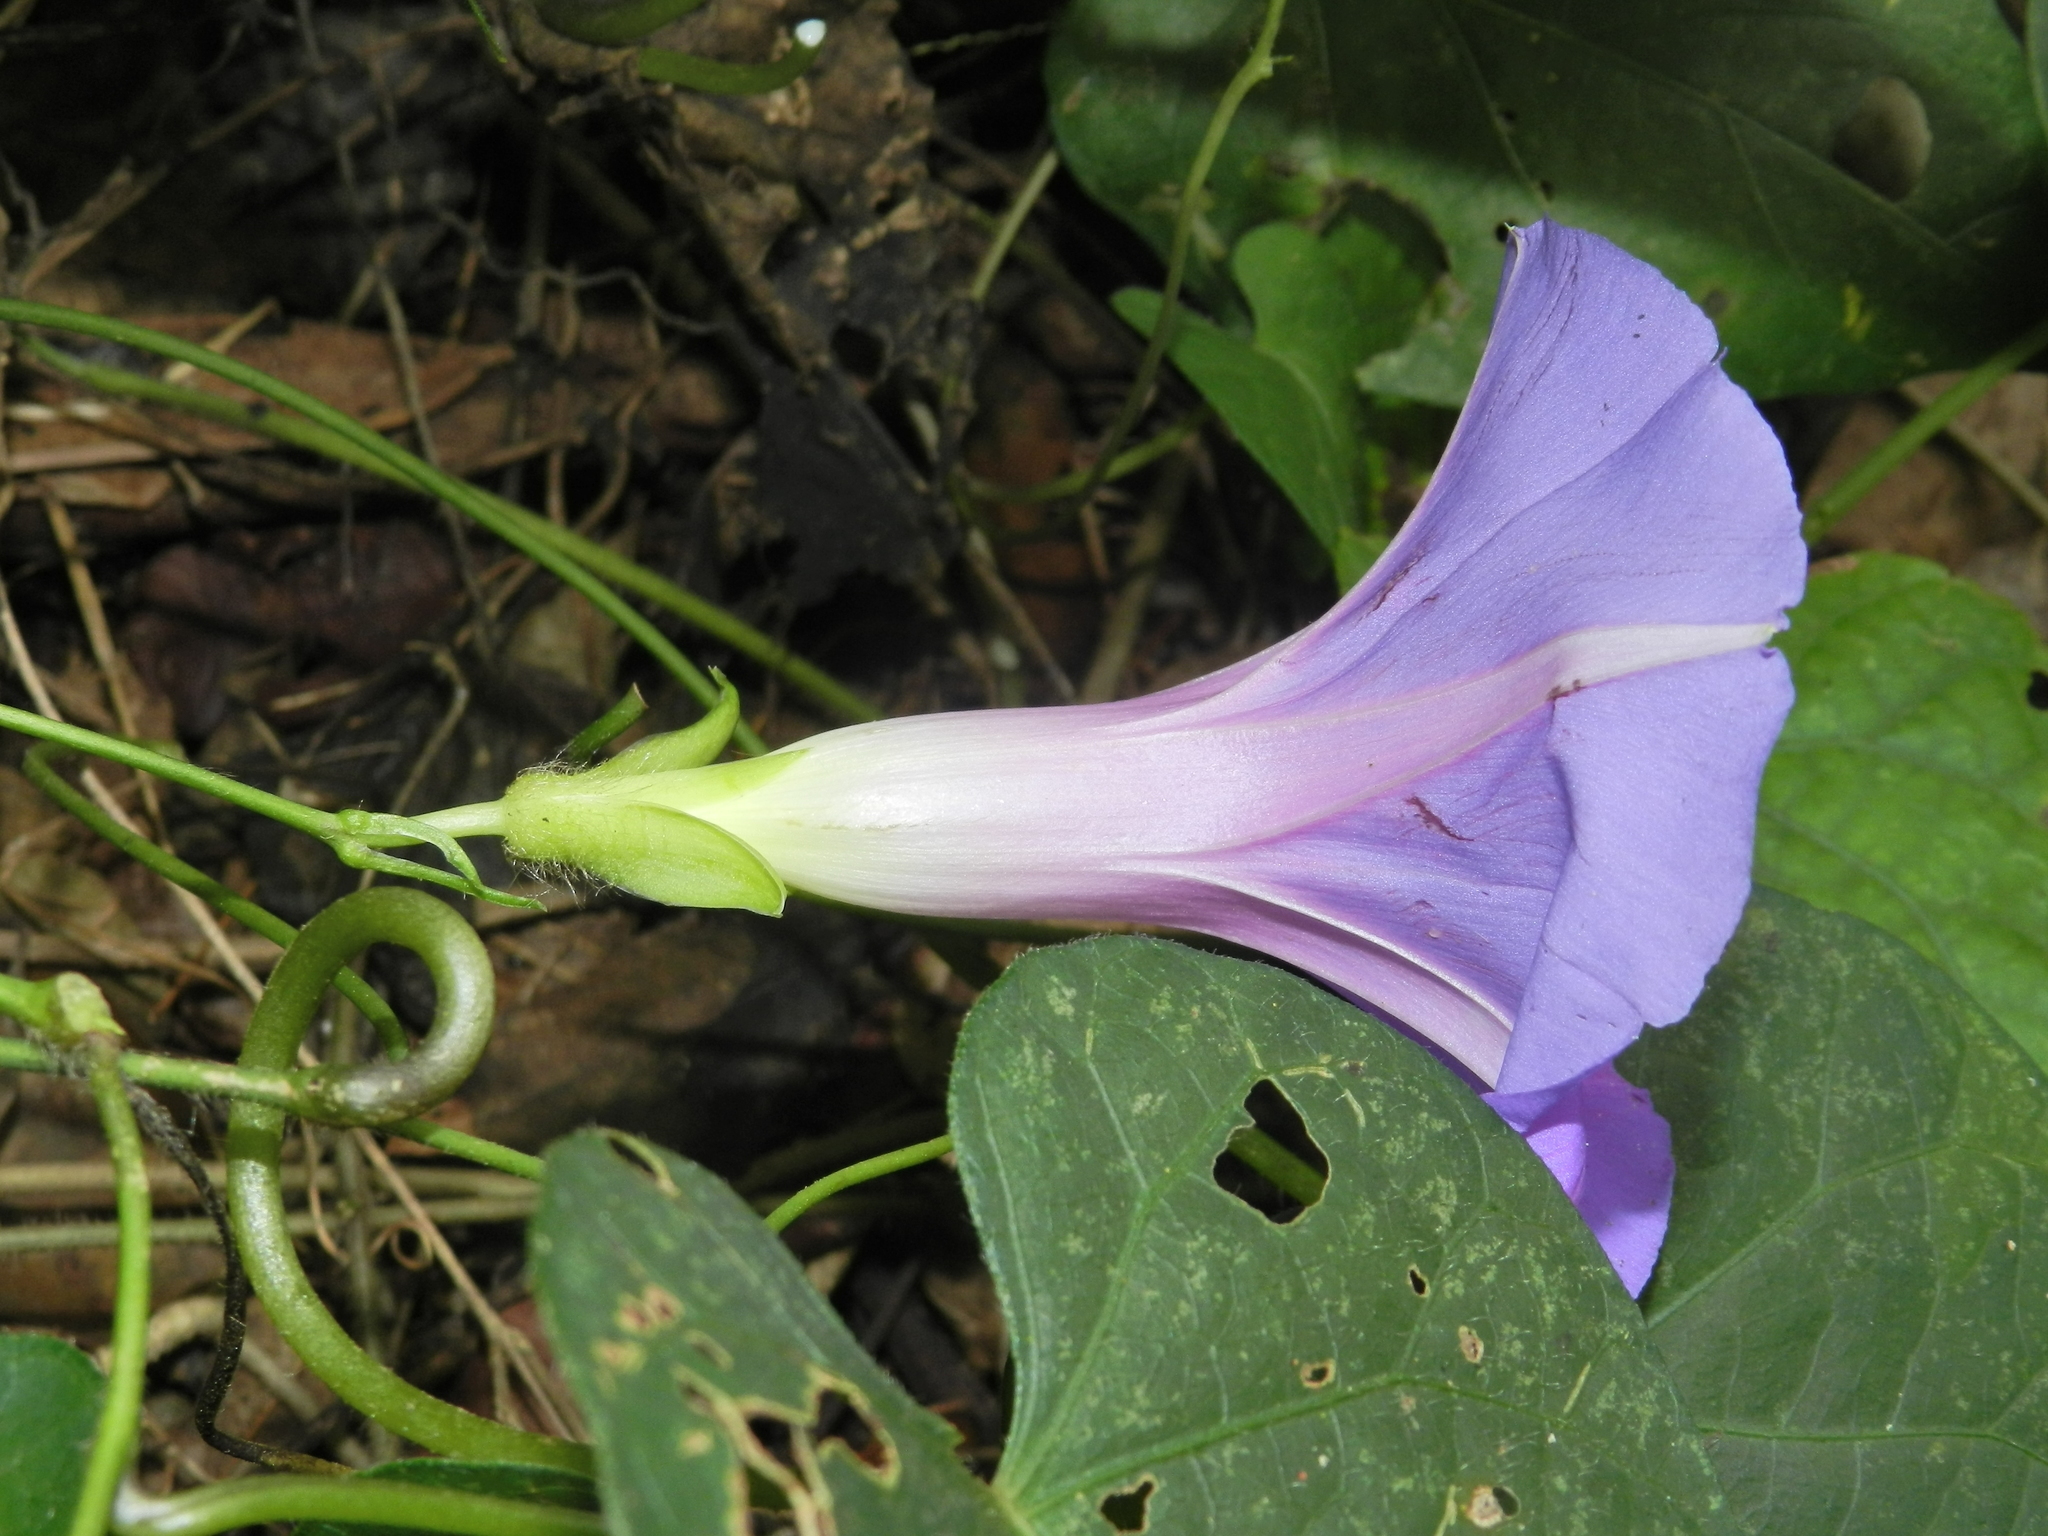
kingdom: Plantae
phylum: Tracheophyta
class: Magnoliopsida
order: Solanales
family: Convolvulaceae
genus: Ipomoea
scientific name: Ipomoea mitchelliae
